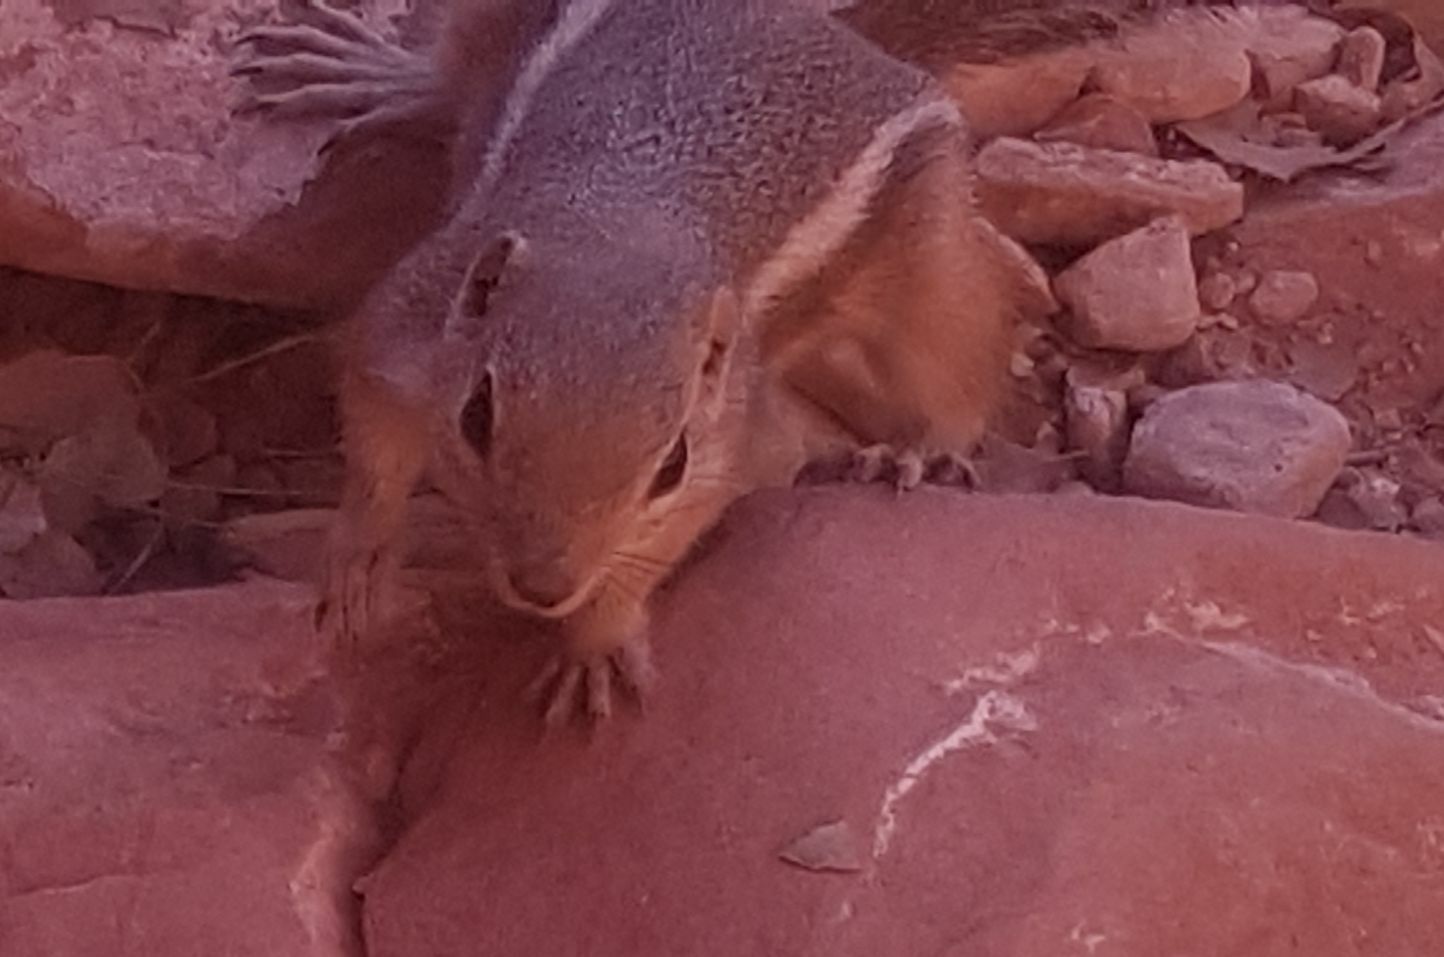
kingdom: Animalia
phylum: Chordata
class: Mammalia
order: Rodentia
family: Sciuridae
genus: Ammospermophilus
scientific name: Ammospermophilus leucurus
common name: White-tailed antelope squirrel
